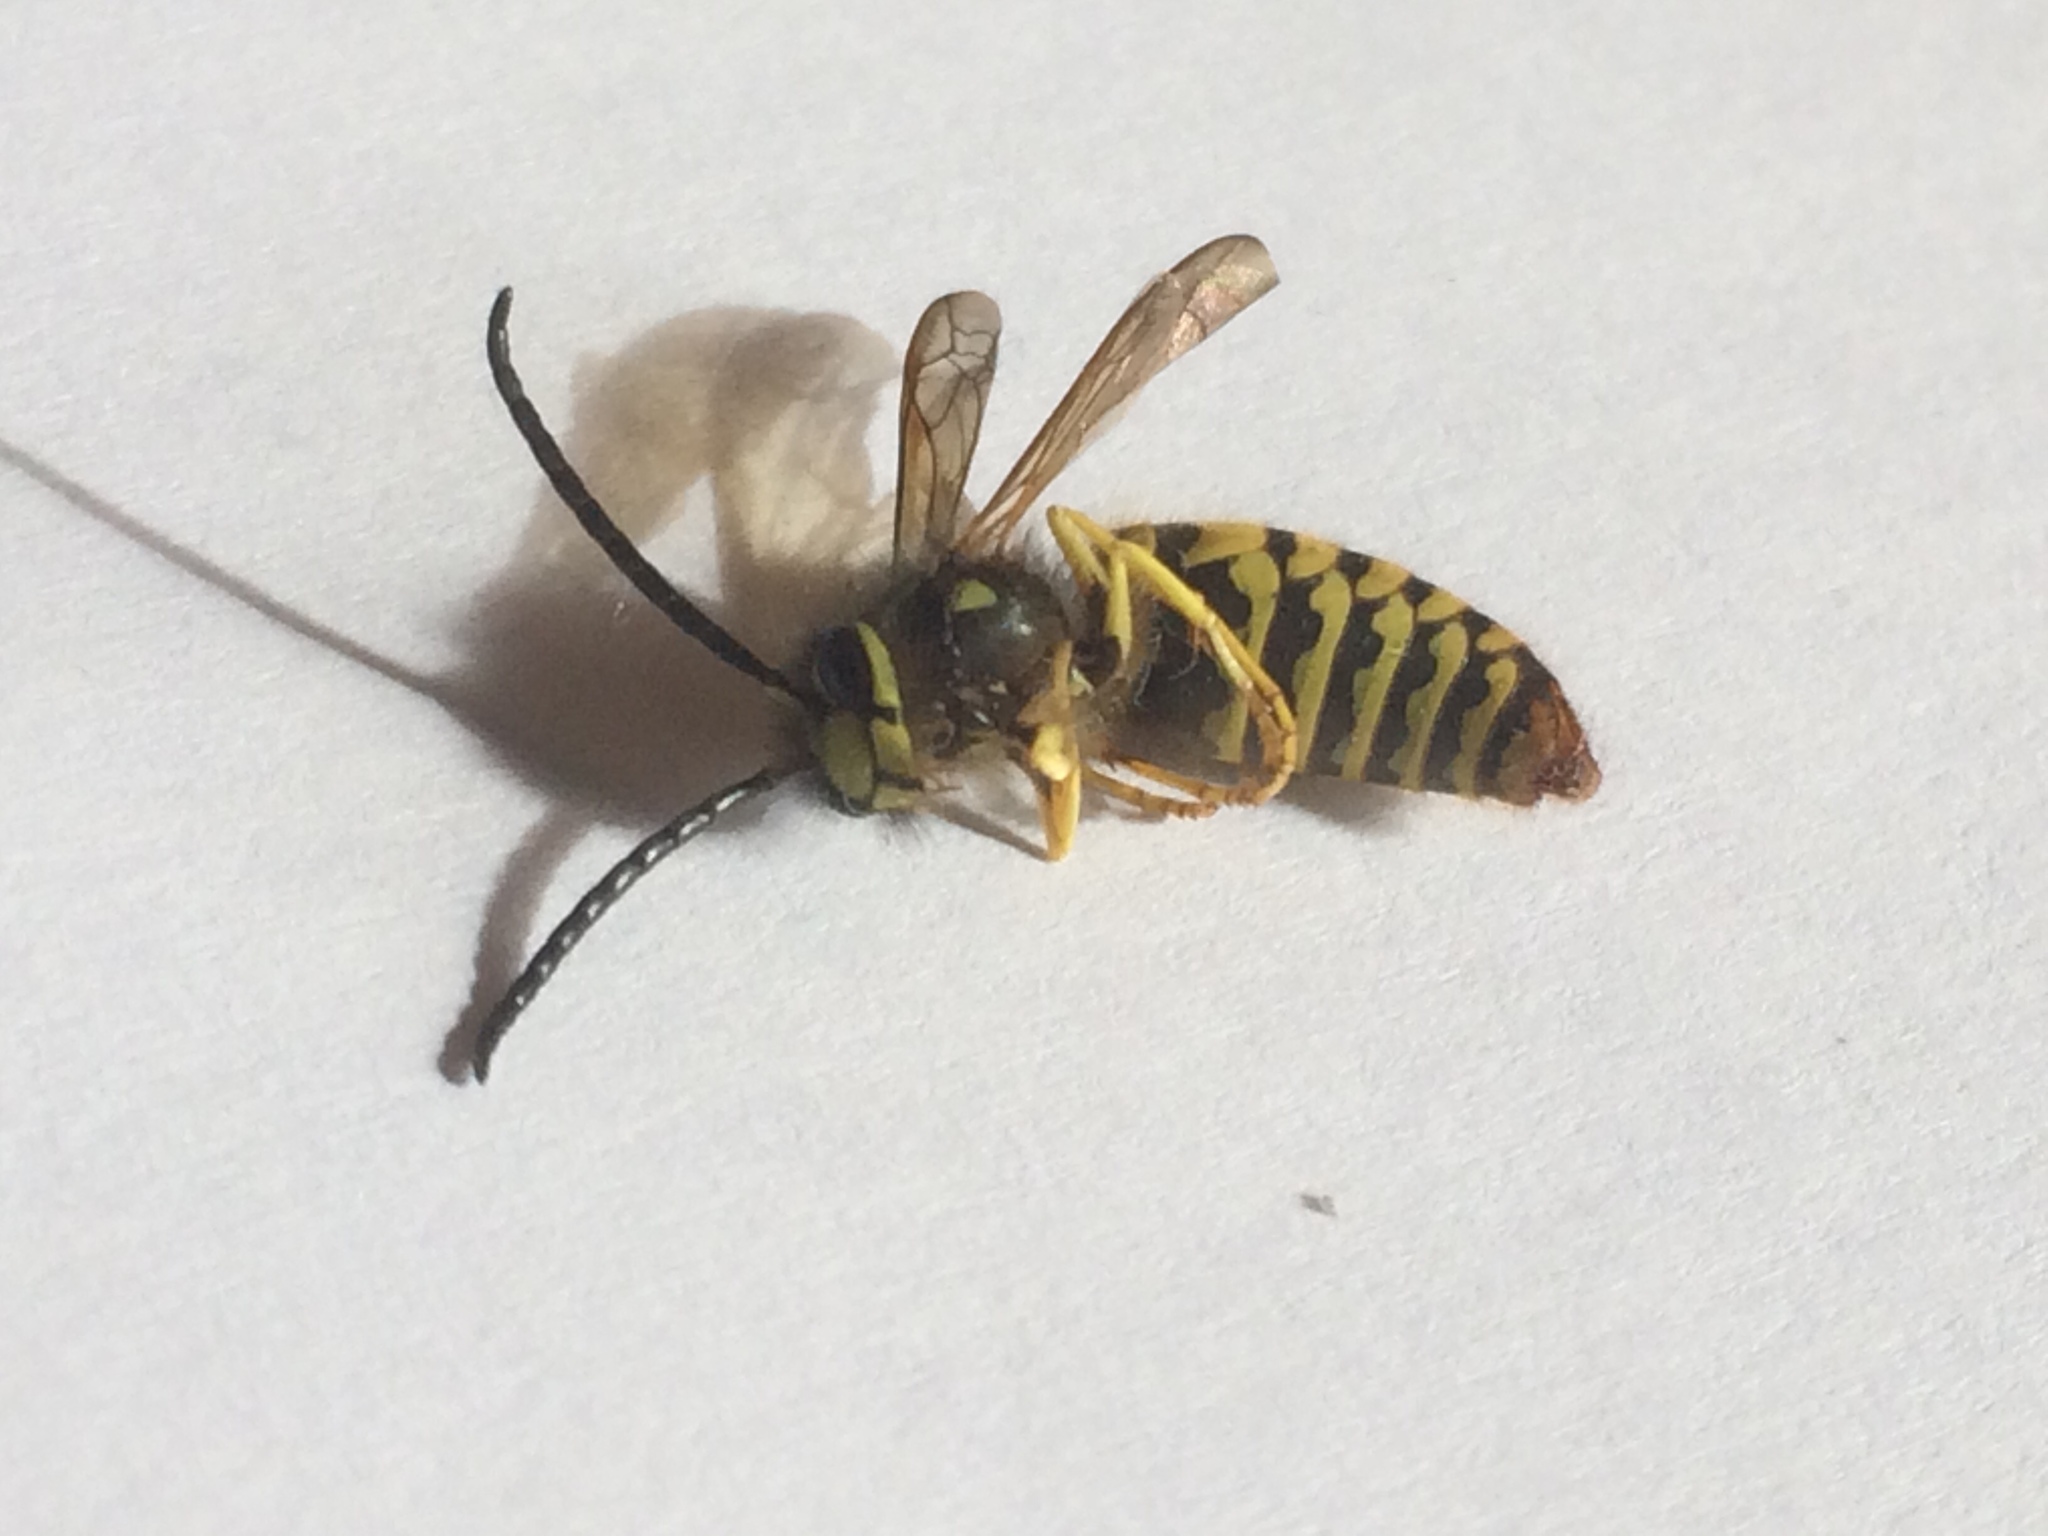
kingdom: Animalia
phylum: Arthropoda
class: Insecta
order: Hymenoptera
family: Vespidae
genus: Vespula
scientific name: Vespula maculifrons
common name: Eastern yellowjacket
